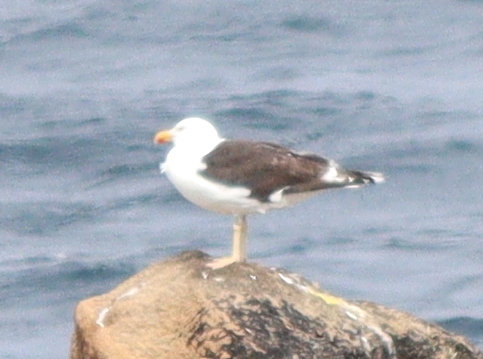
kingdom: Animalia
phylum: Chordata
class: Aves
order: Charadriiformes
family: Laridae
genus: Larus
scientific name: Larus marinus
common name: Great black-backed gull
